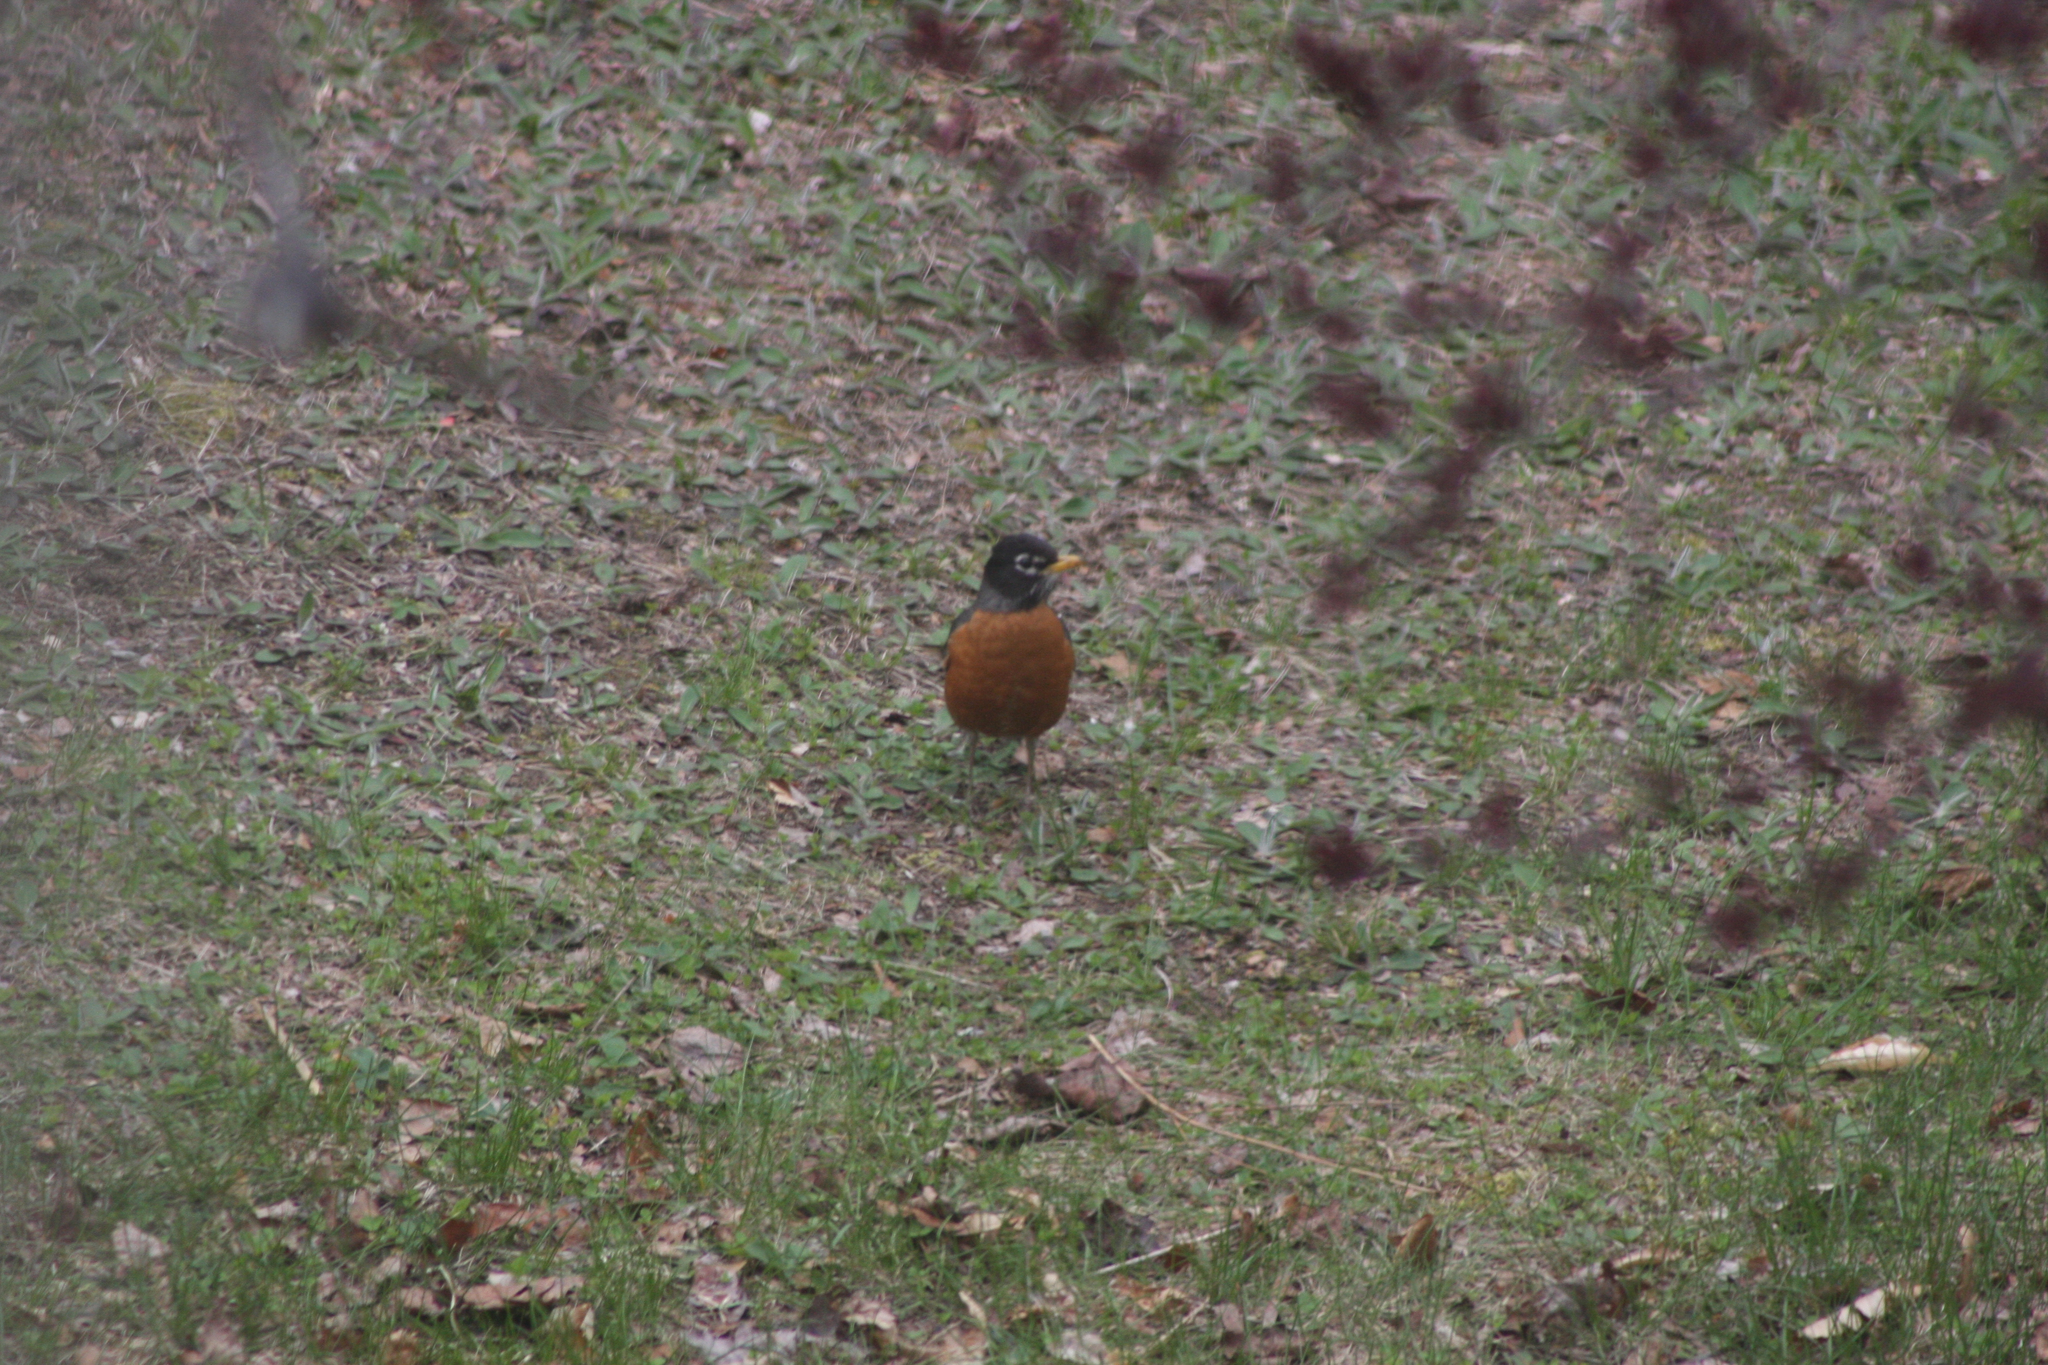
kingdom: Animalia
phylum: Chordata
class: Aves
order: Passeriformes
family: Turdidae
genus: Turdus
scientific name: Turdus migratorius
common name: American robin
